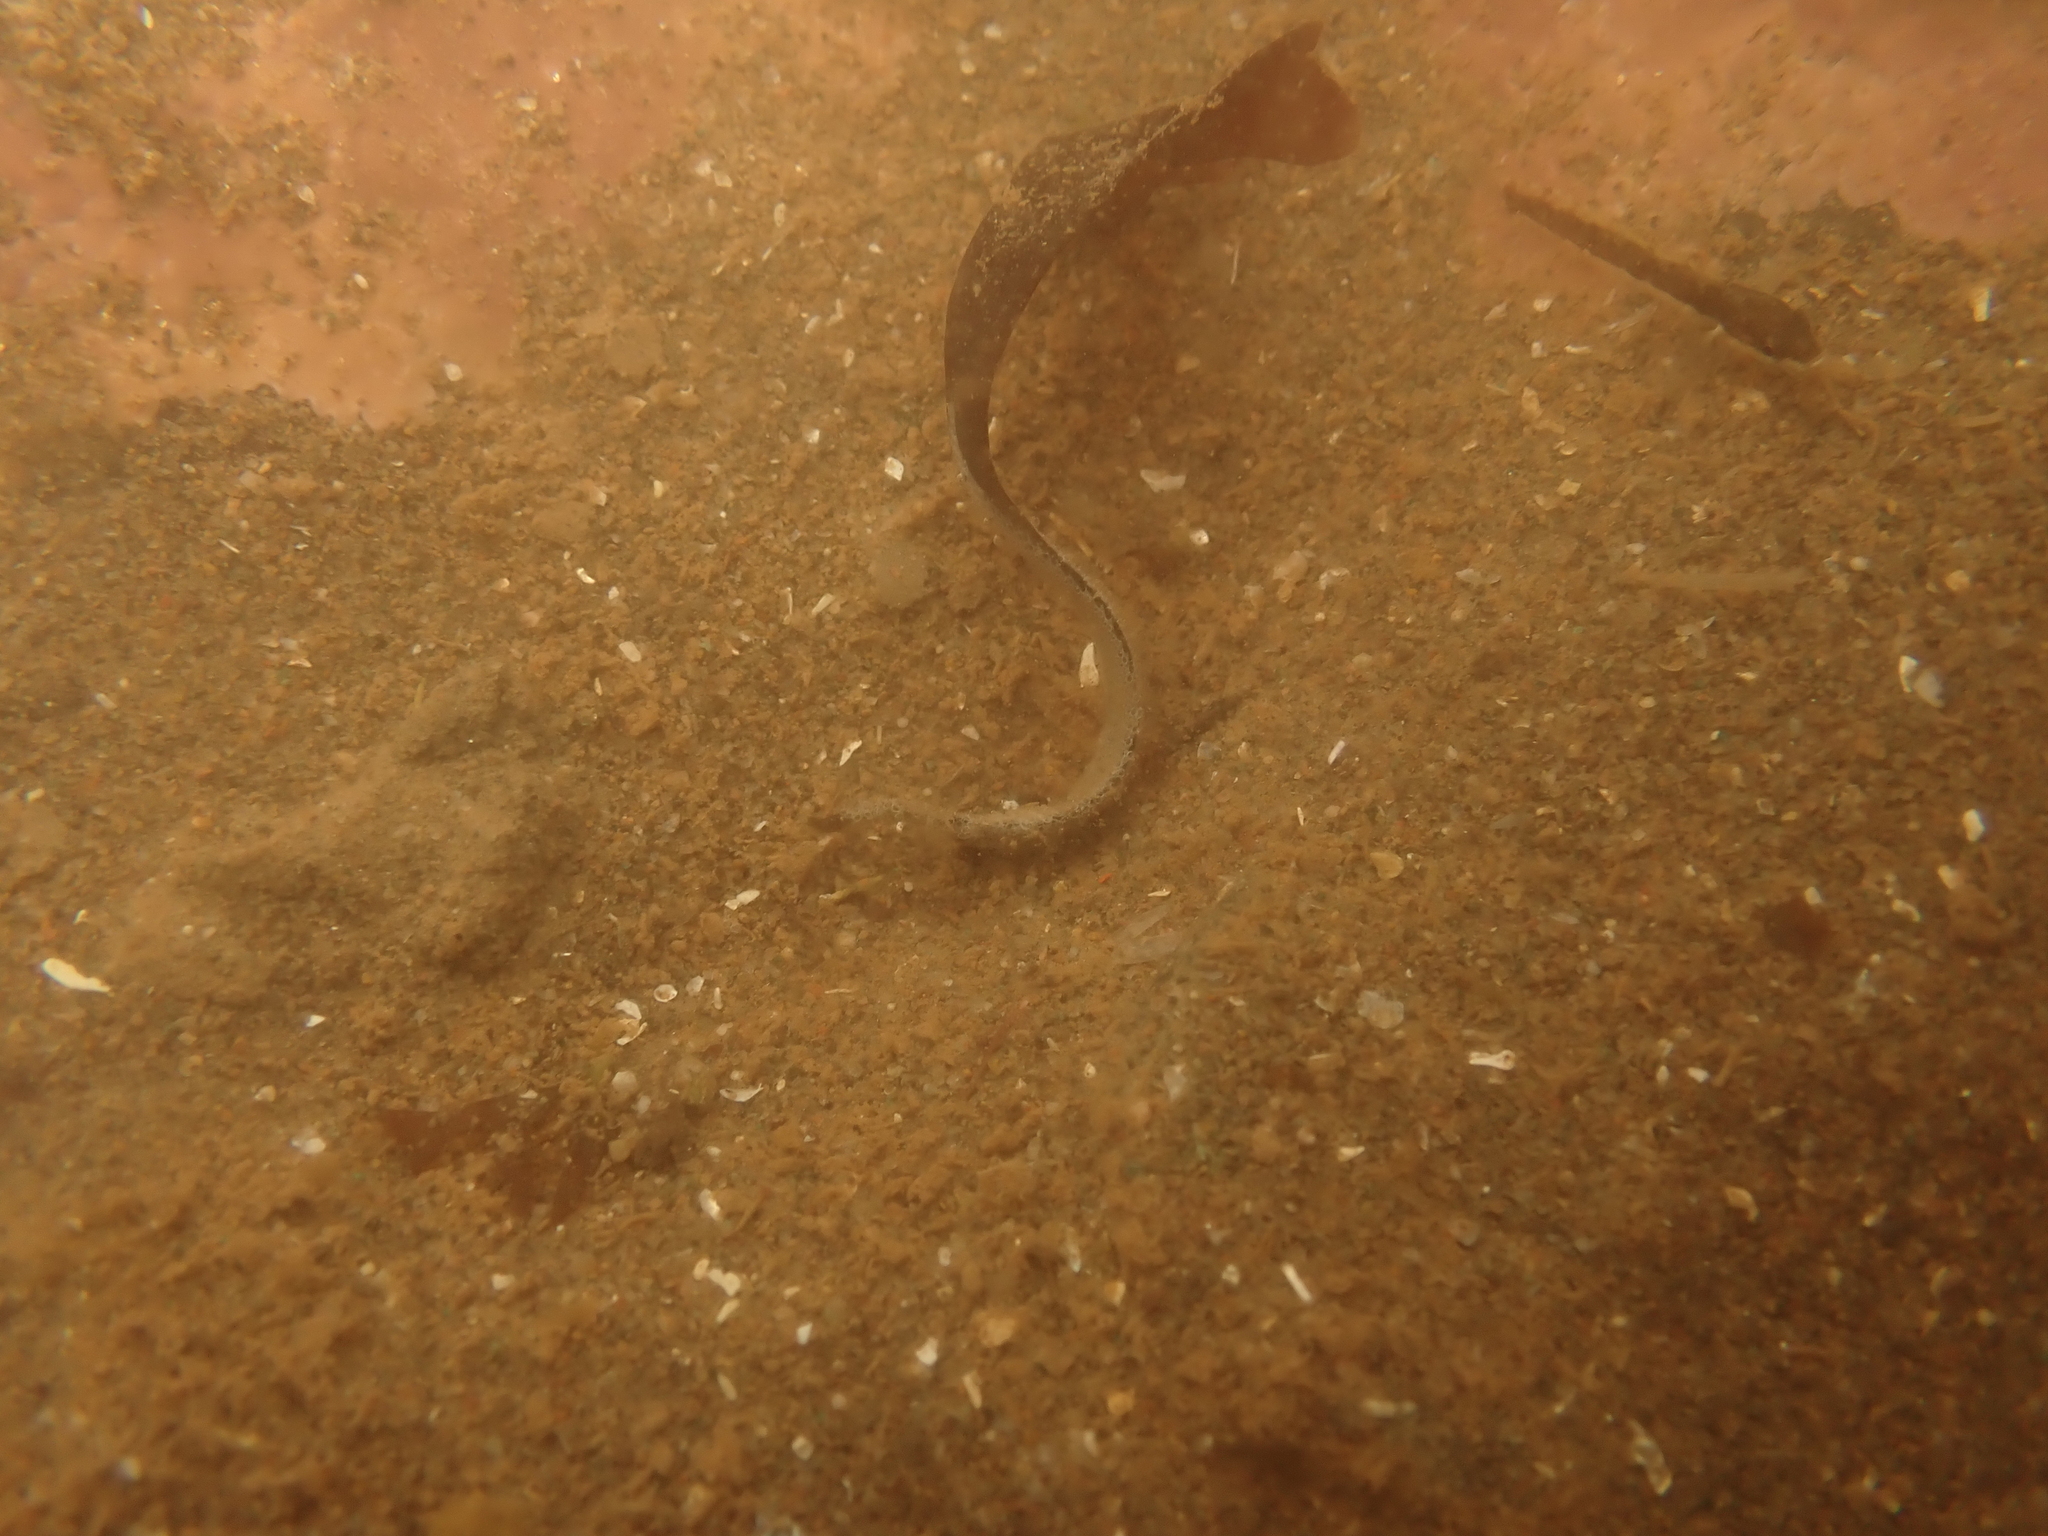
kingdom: Animalia
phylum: Chordata
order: Perciformes
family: Stichaeidae
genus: Ulvaria
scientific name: Ulvaria subbifurcata
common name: Radiated shanny
